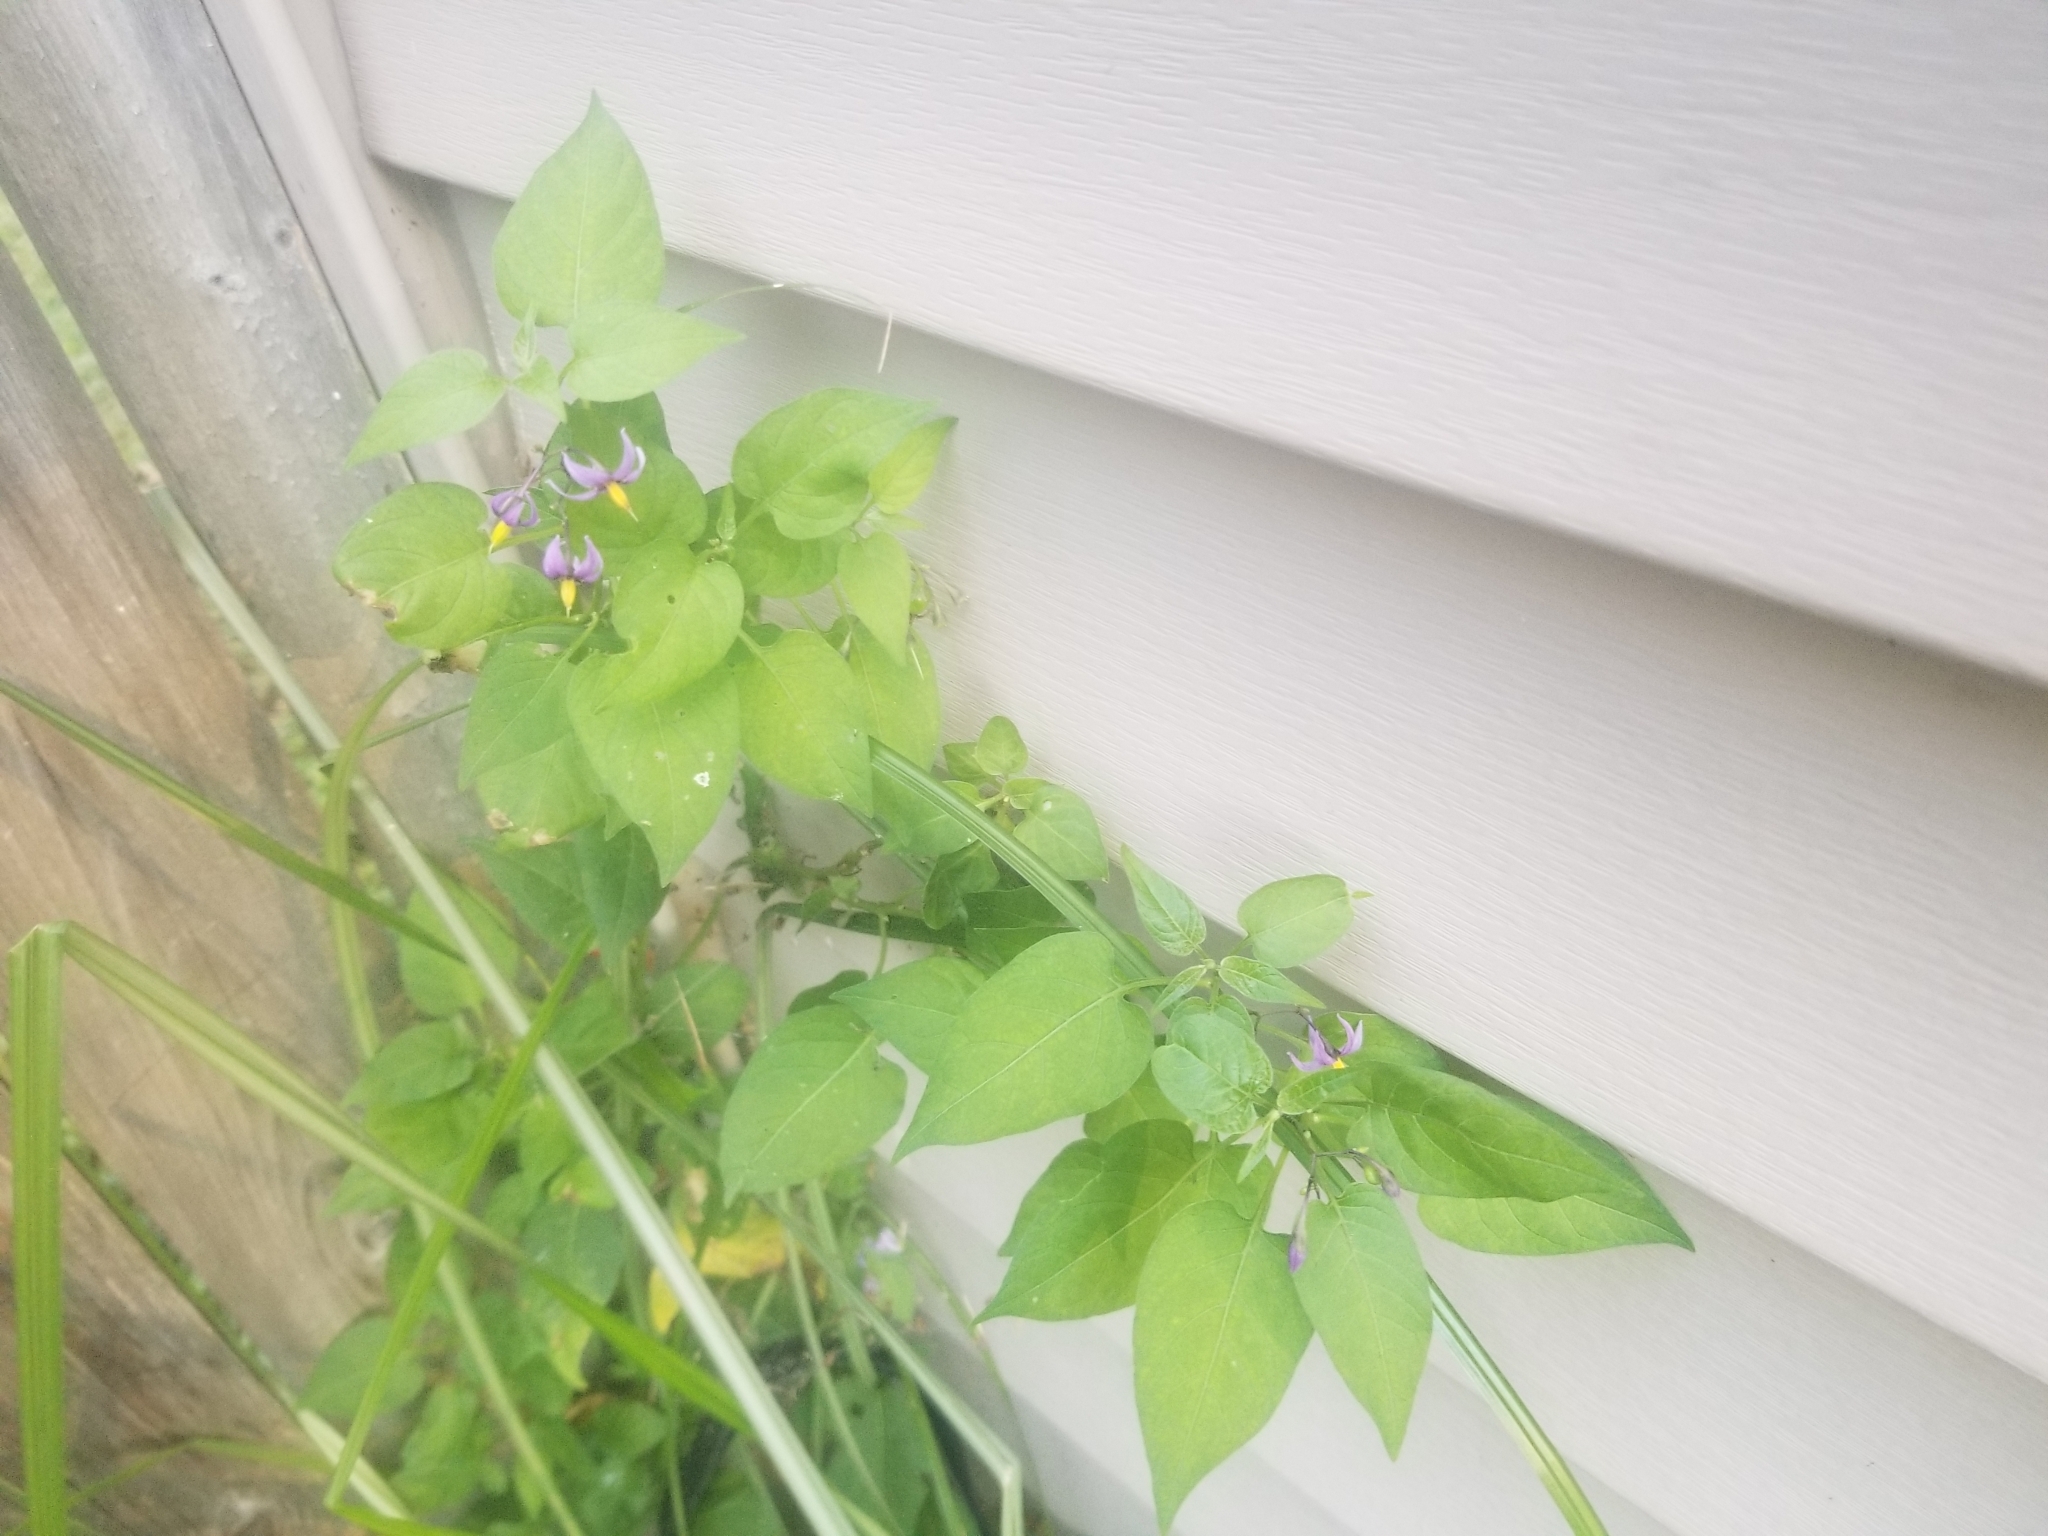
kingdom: Plantae
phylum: Tracheophyta
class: Magnoliopsida
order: Solanales
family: Solanaceae
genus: Solanum
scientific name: Solanum dulcamara
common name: Climbing nightshade
